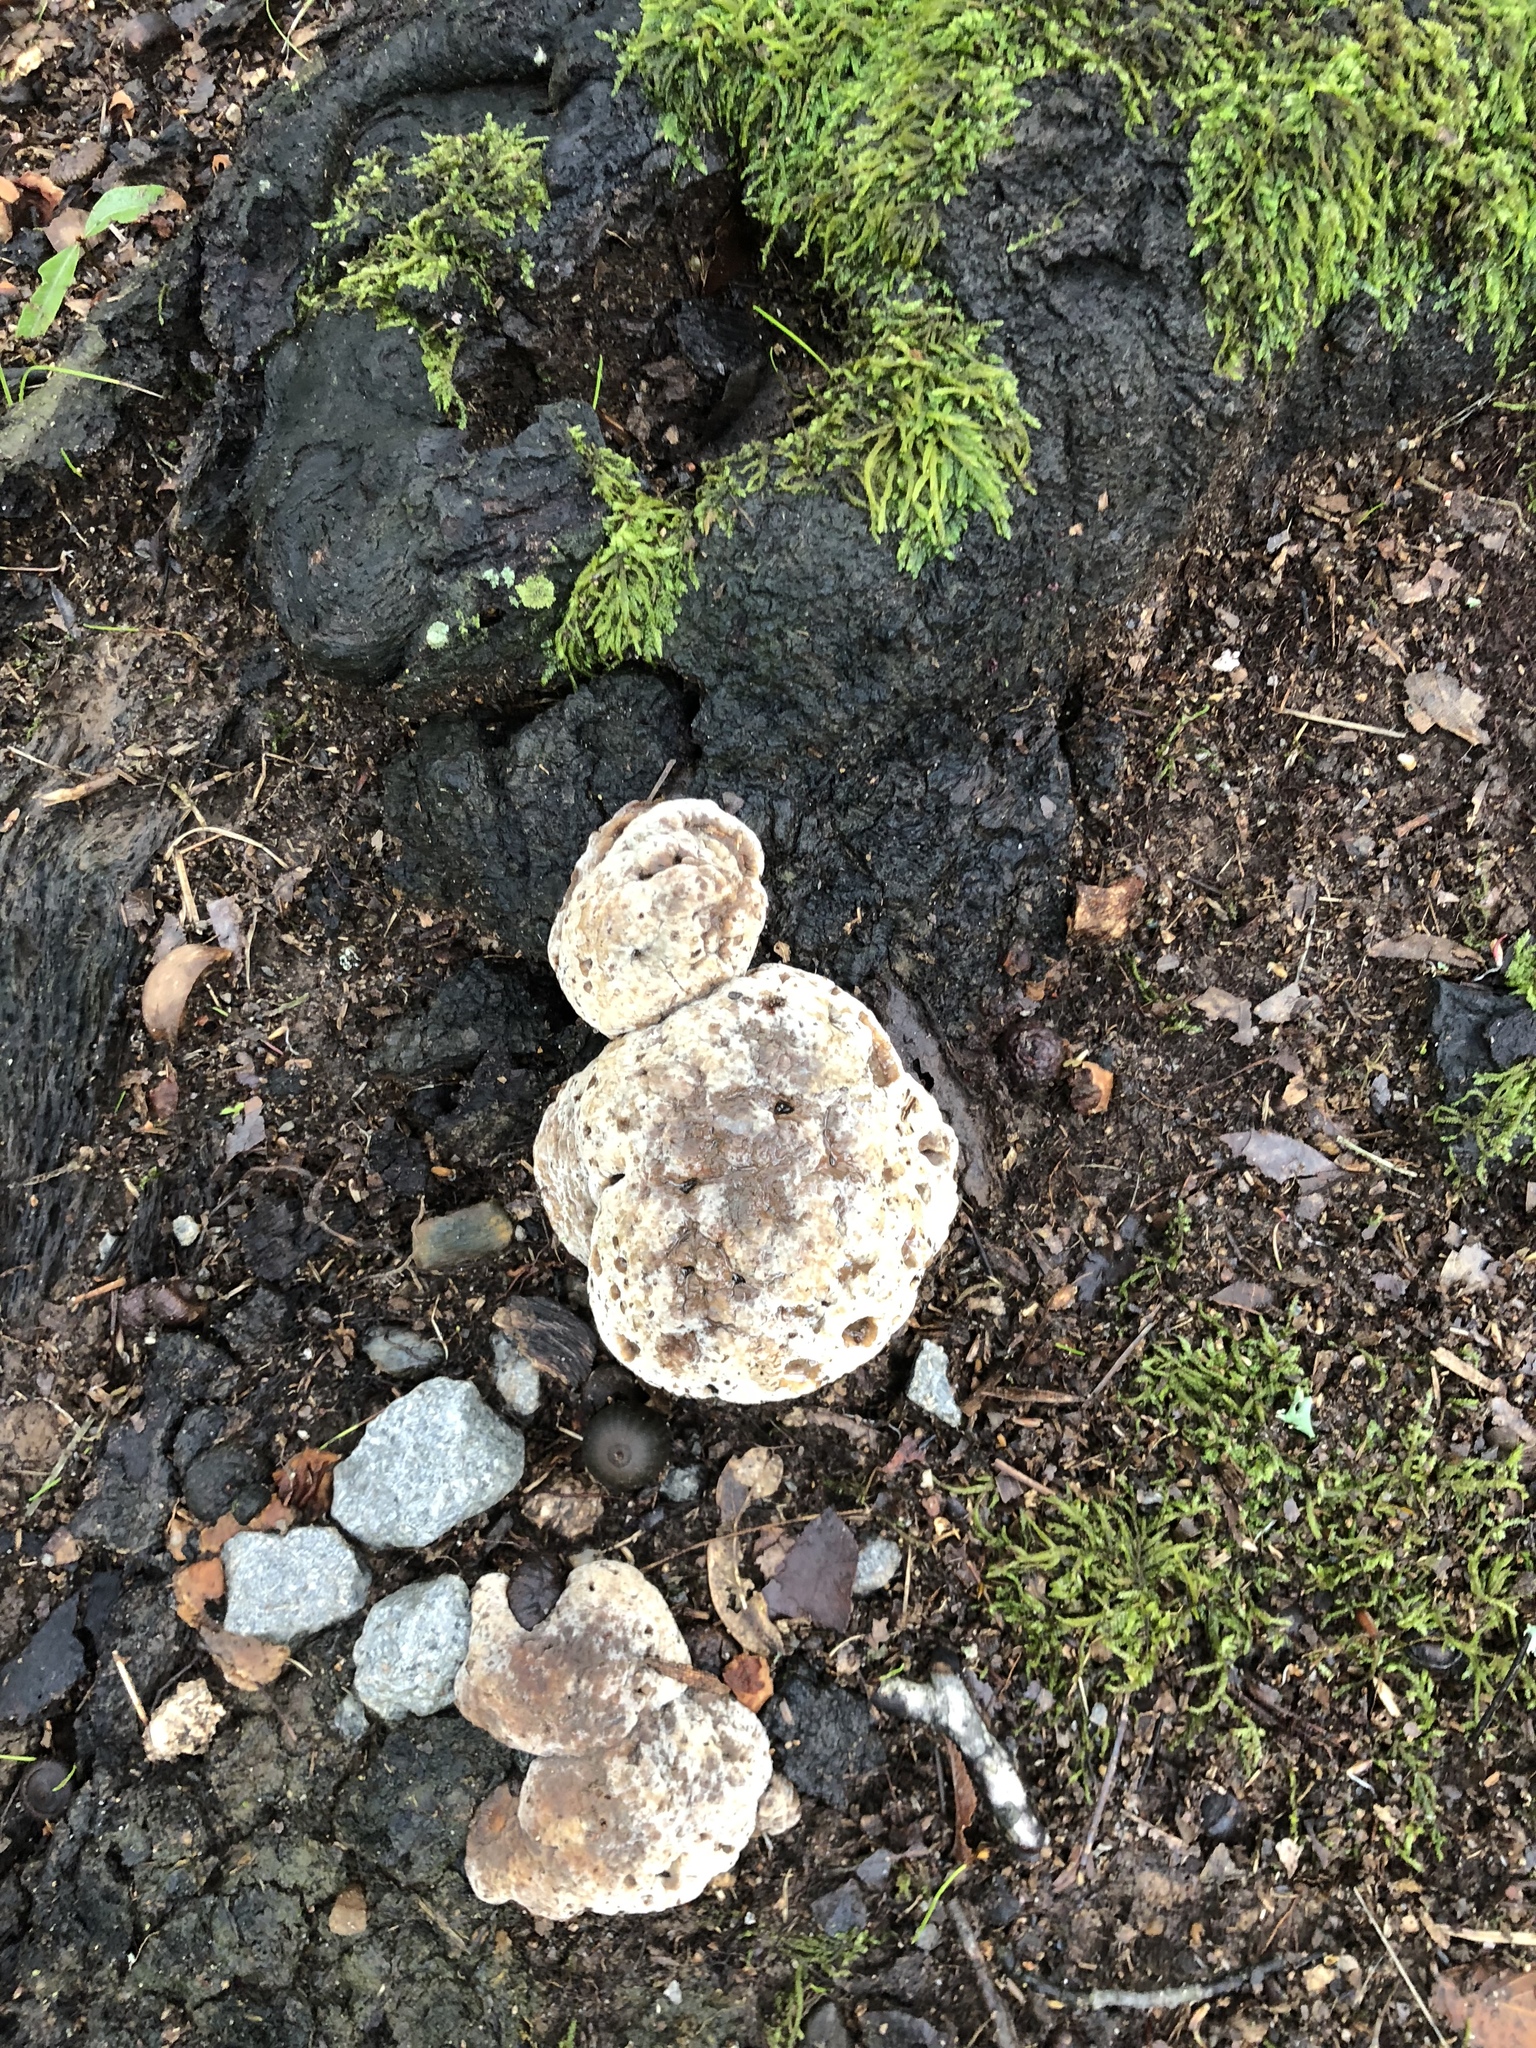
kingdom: Fungi
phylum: Basidiomycota
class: Agaricomycetes
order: Hymenochaetales
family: Hymenochaetaceae
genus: Pseudoinonotus
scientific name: Pseudoinonotus dryadeus
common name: Oak bracket
